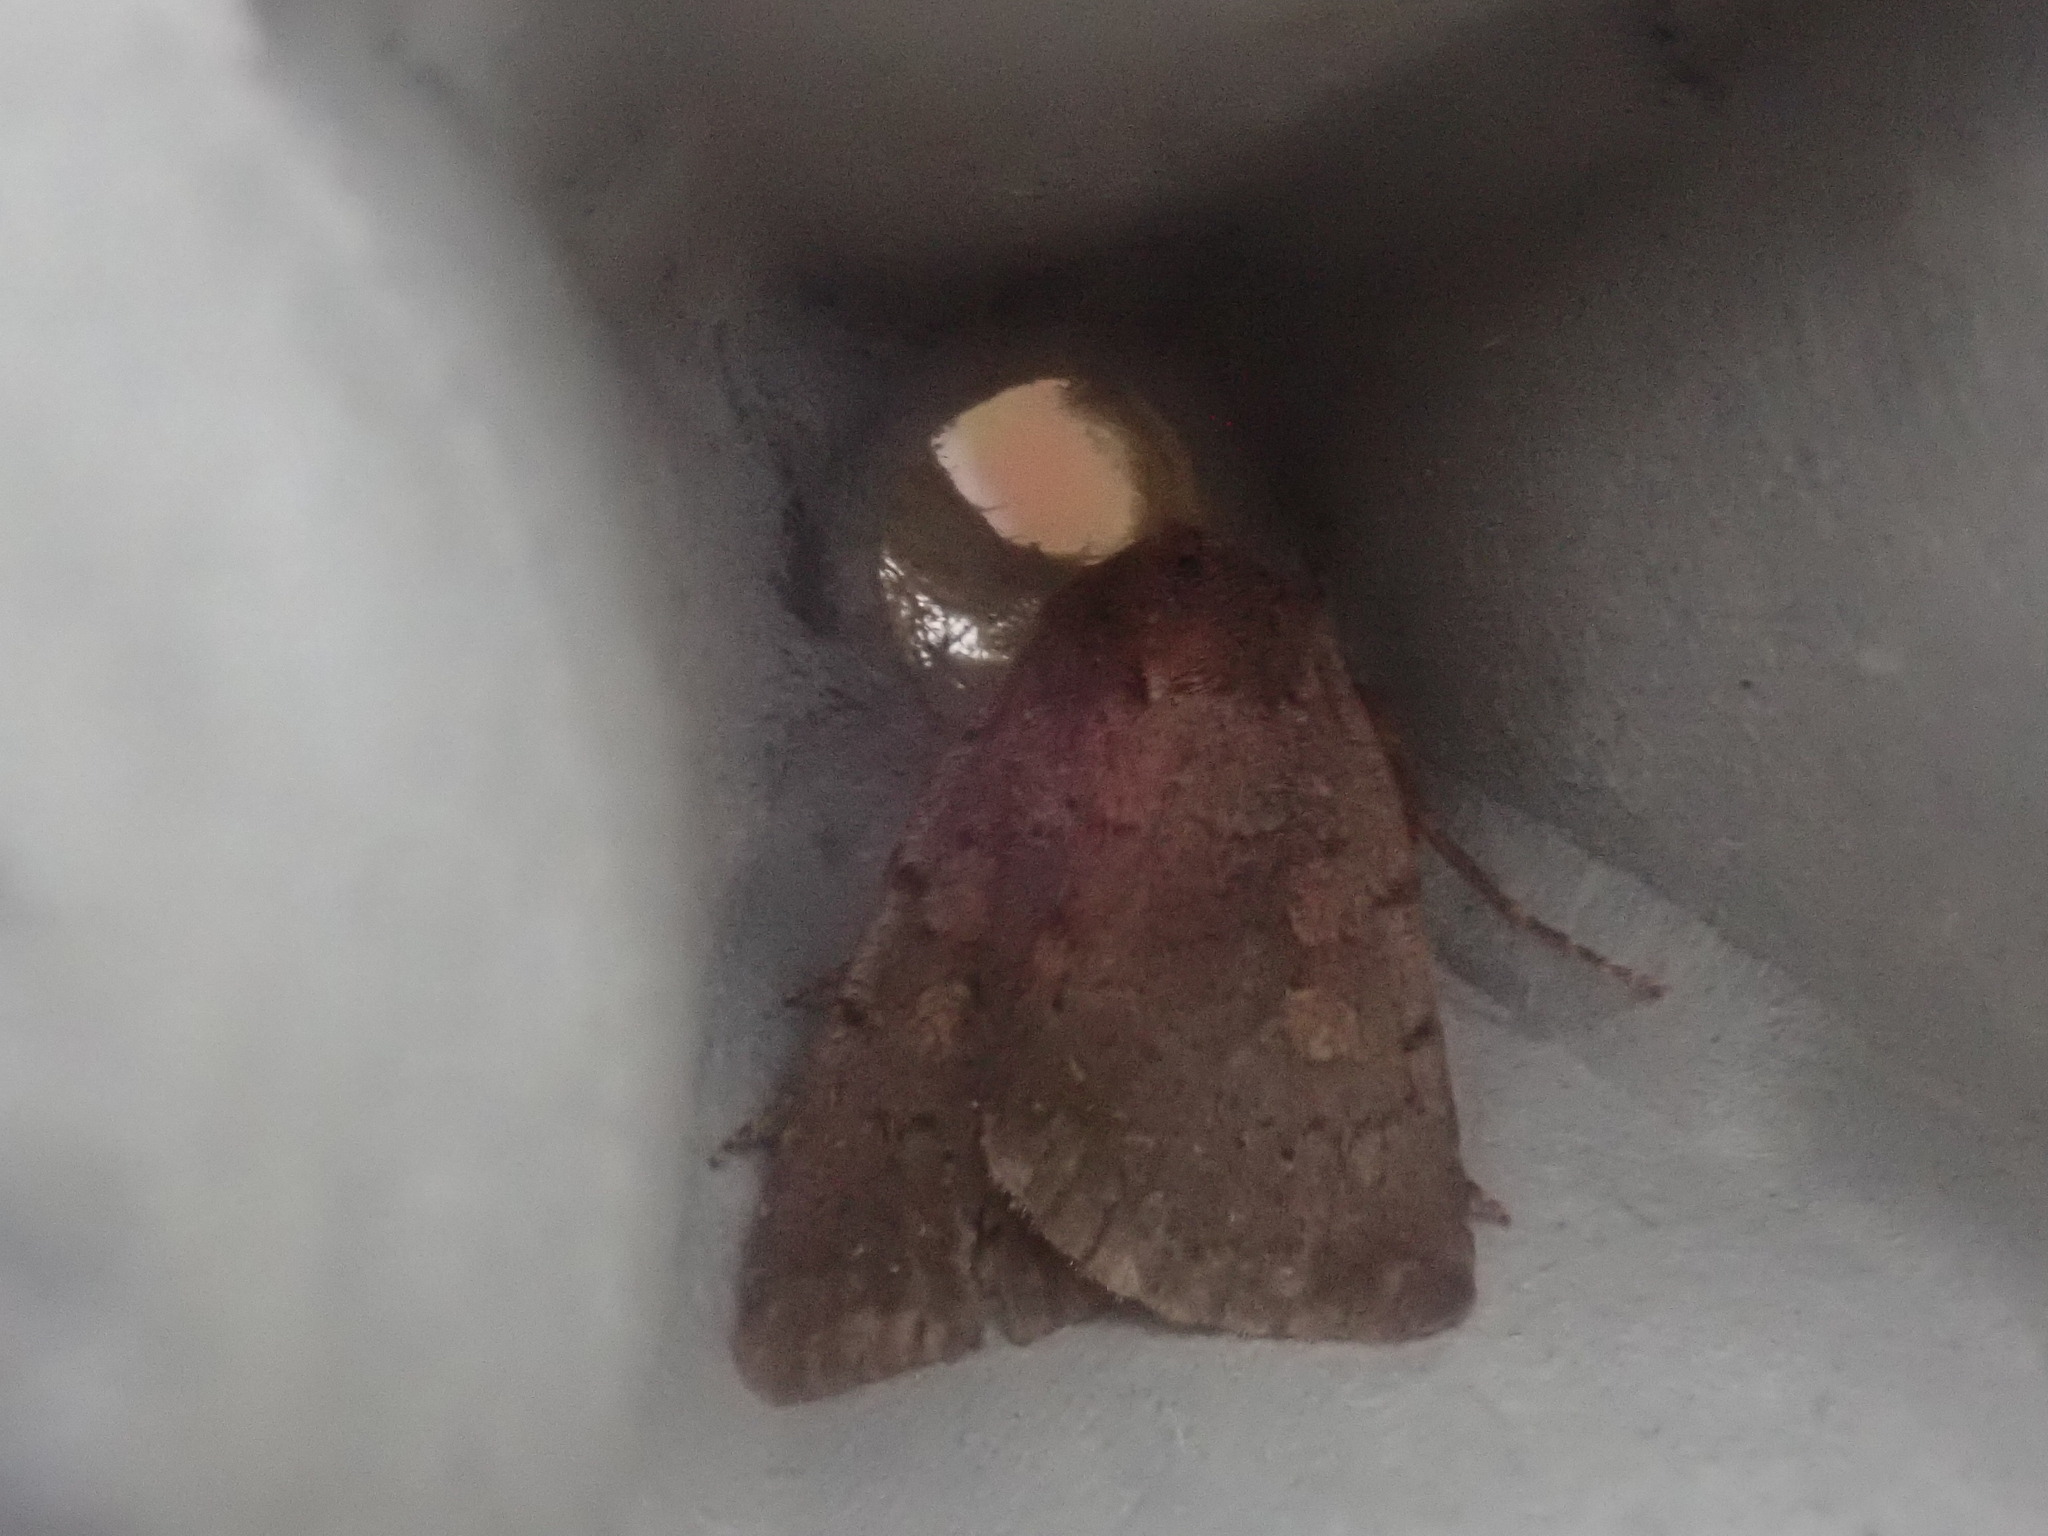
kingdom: Animalia
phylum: Arthropoda
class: Insecta
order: Lepidoptera
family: Noctuidae
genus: Xestia
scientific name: Xestia dilucida
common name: Dull reddish dart
